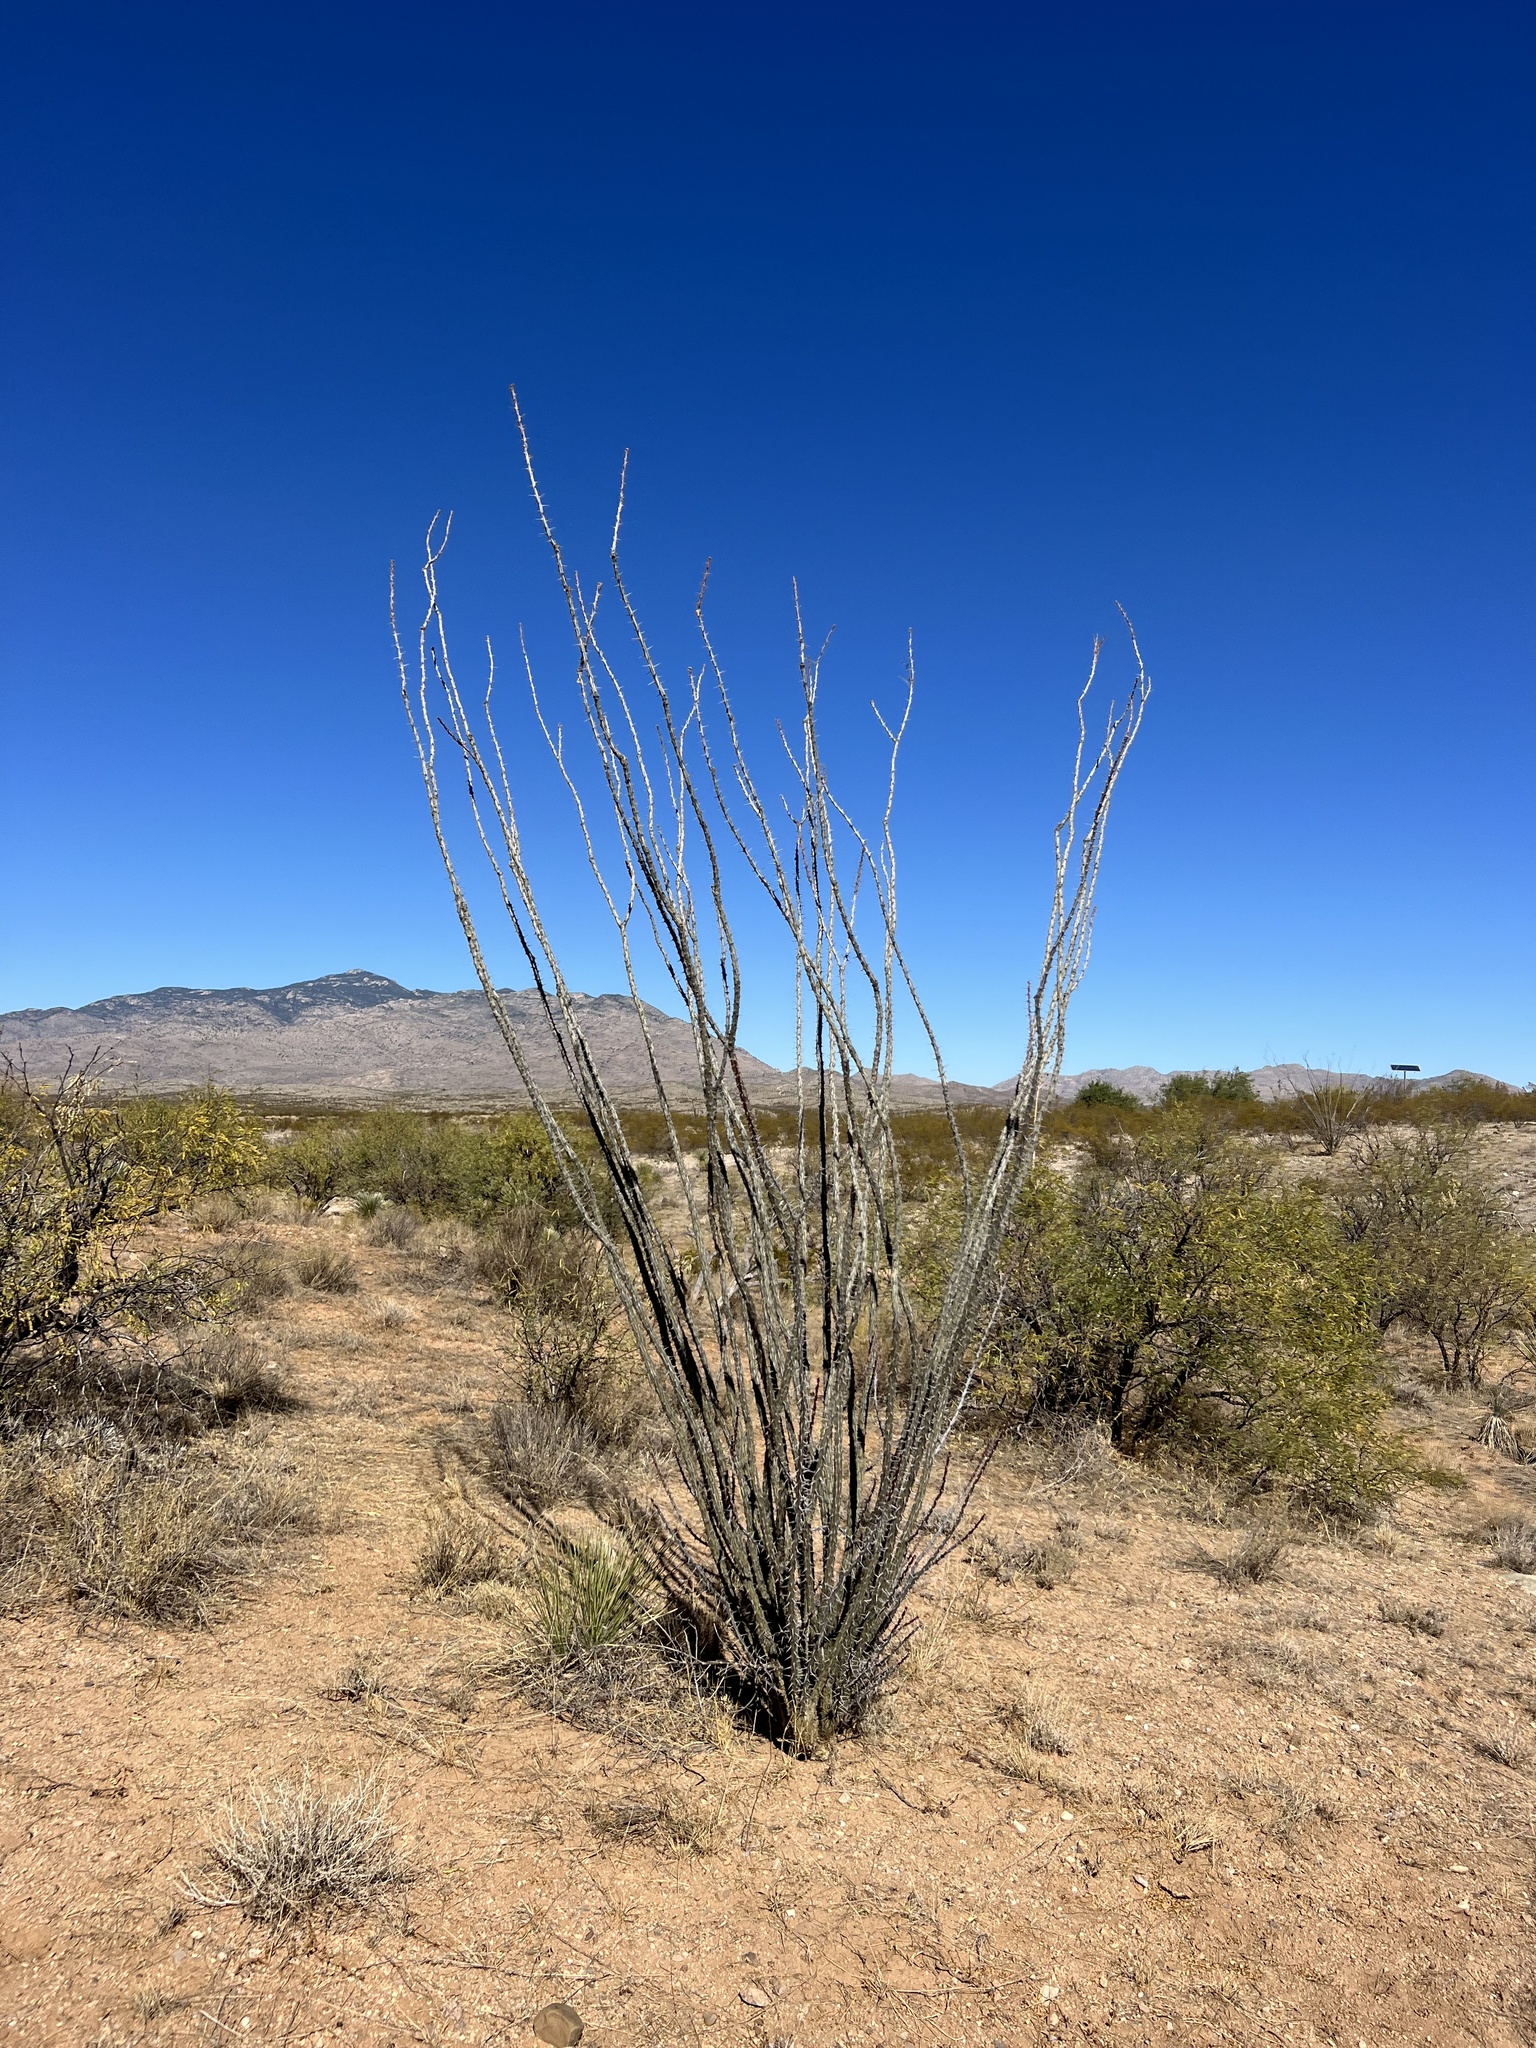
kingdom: Plantae
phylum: Tracheophyta
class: Magnoliopsida
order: Ericales
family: Fouquieriaceae
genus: Fouquieria
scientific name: Fouquieria splendens
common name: Vine-cactus
